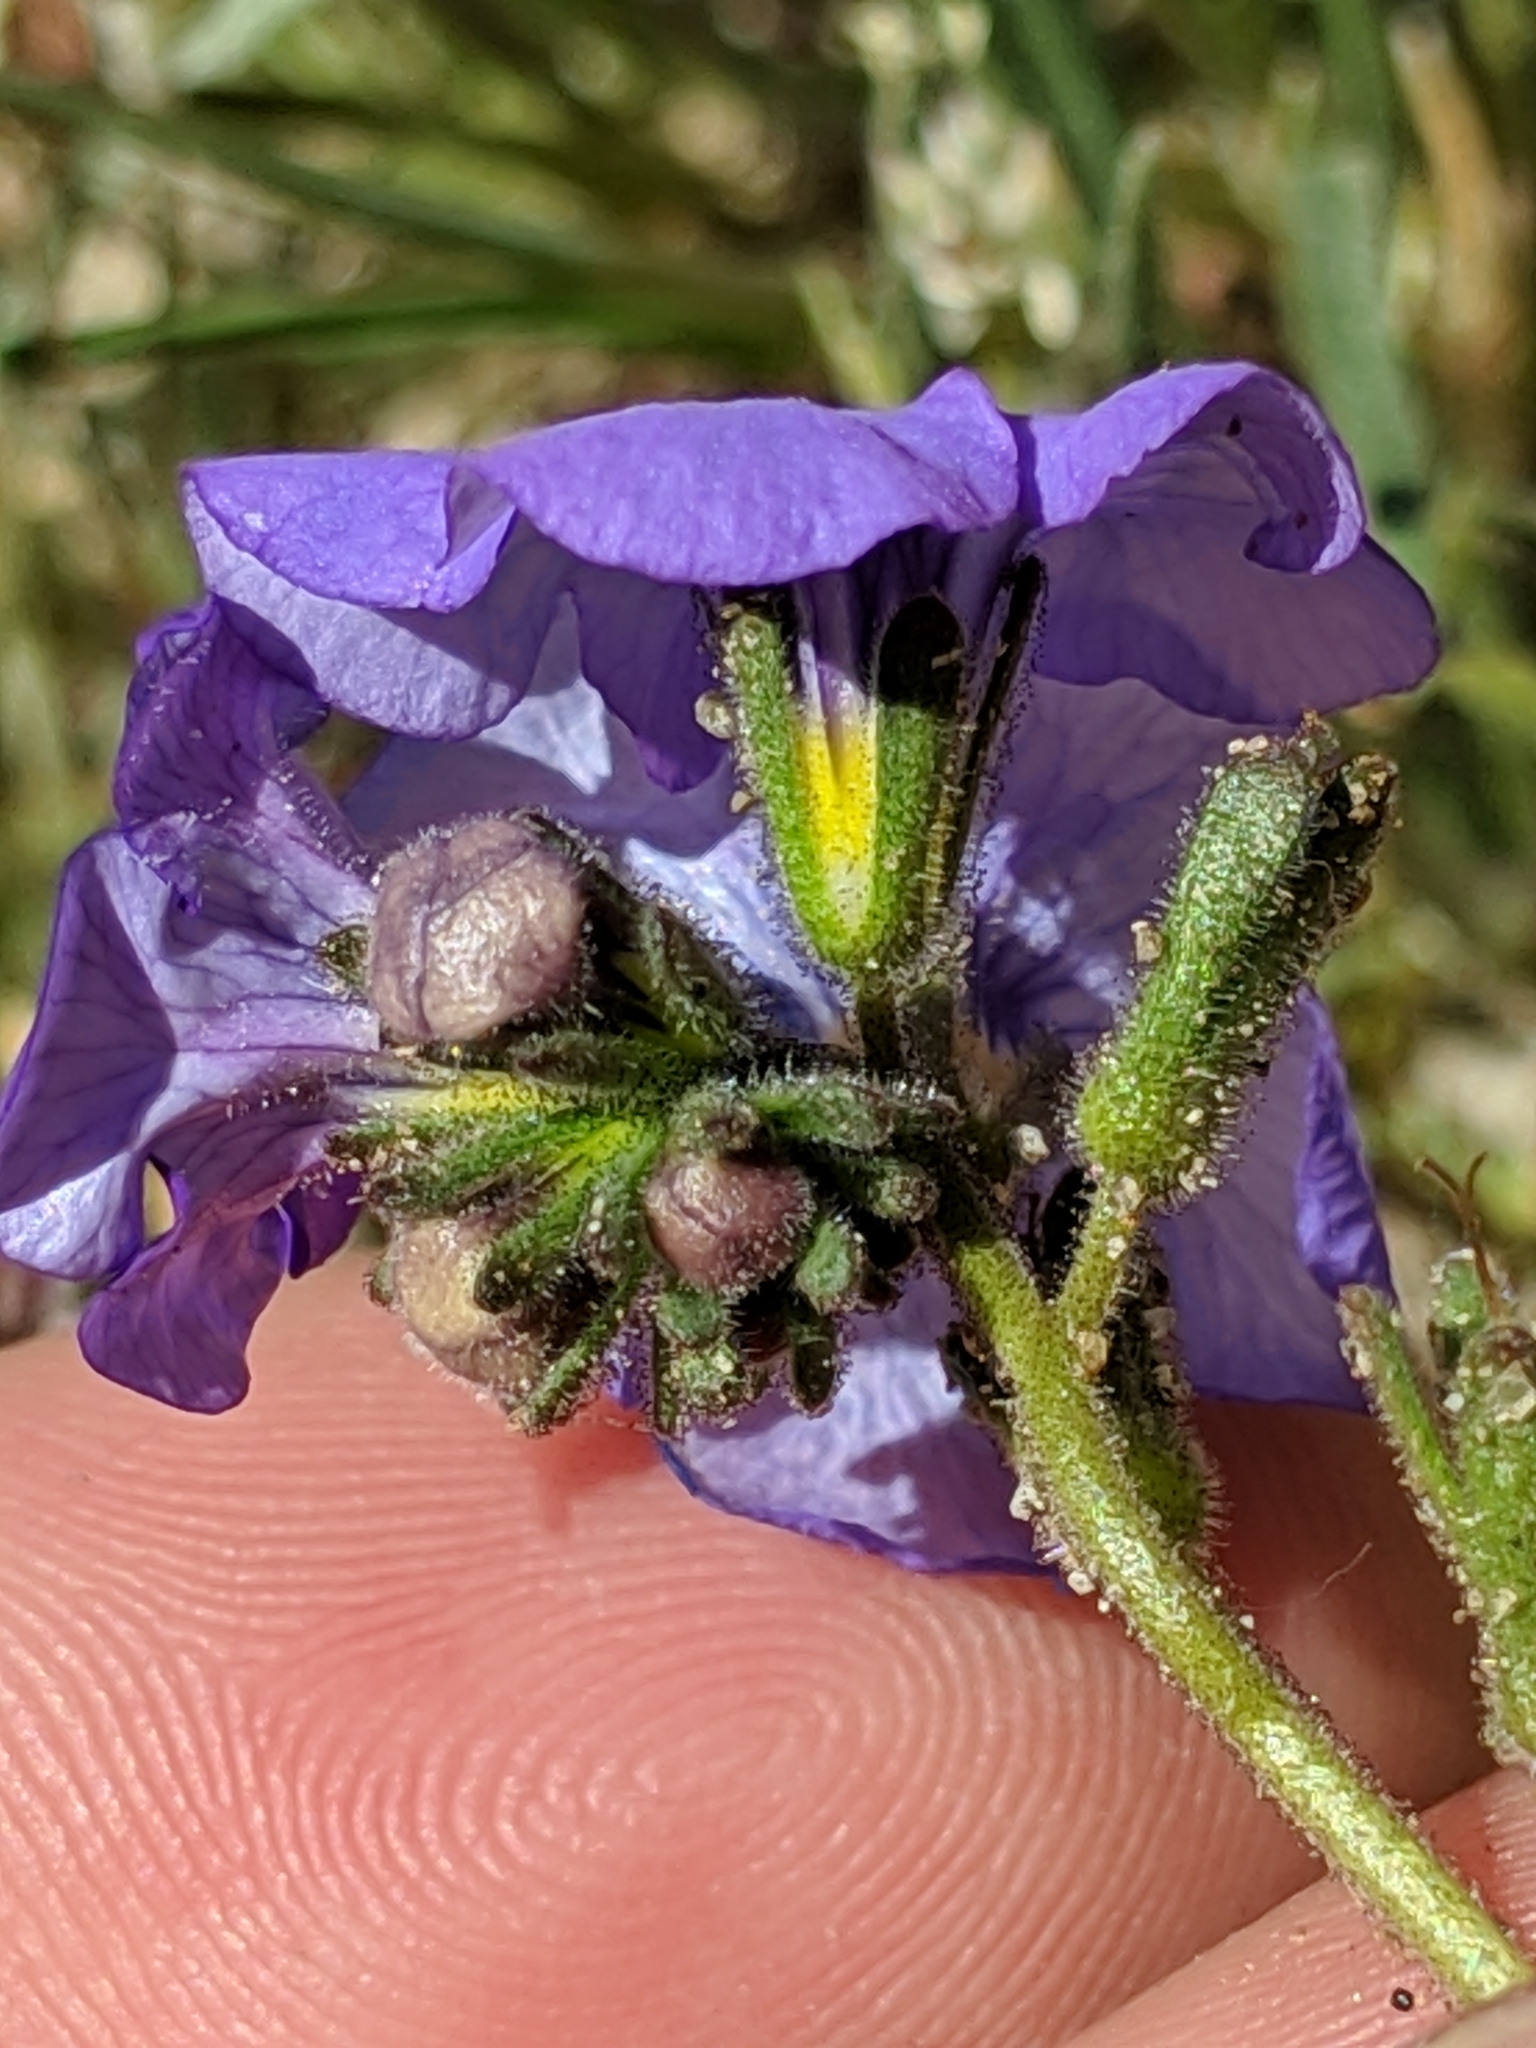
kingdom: Plantae
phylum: Tracheophyta
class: Magnoliopsida
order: Boraginales
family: Hydrophyllaceae
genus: Phacelia
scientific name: Phacelia fremontii
